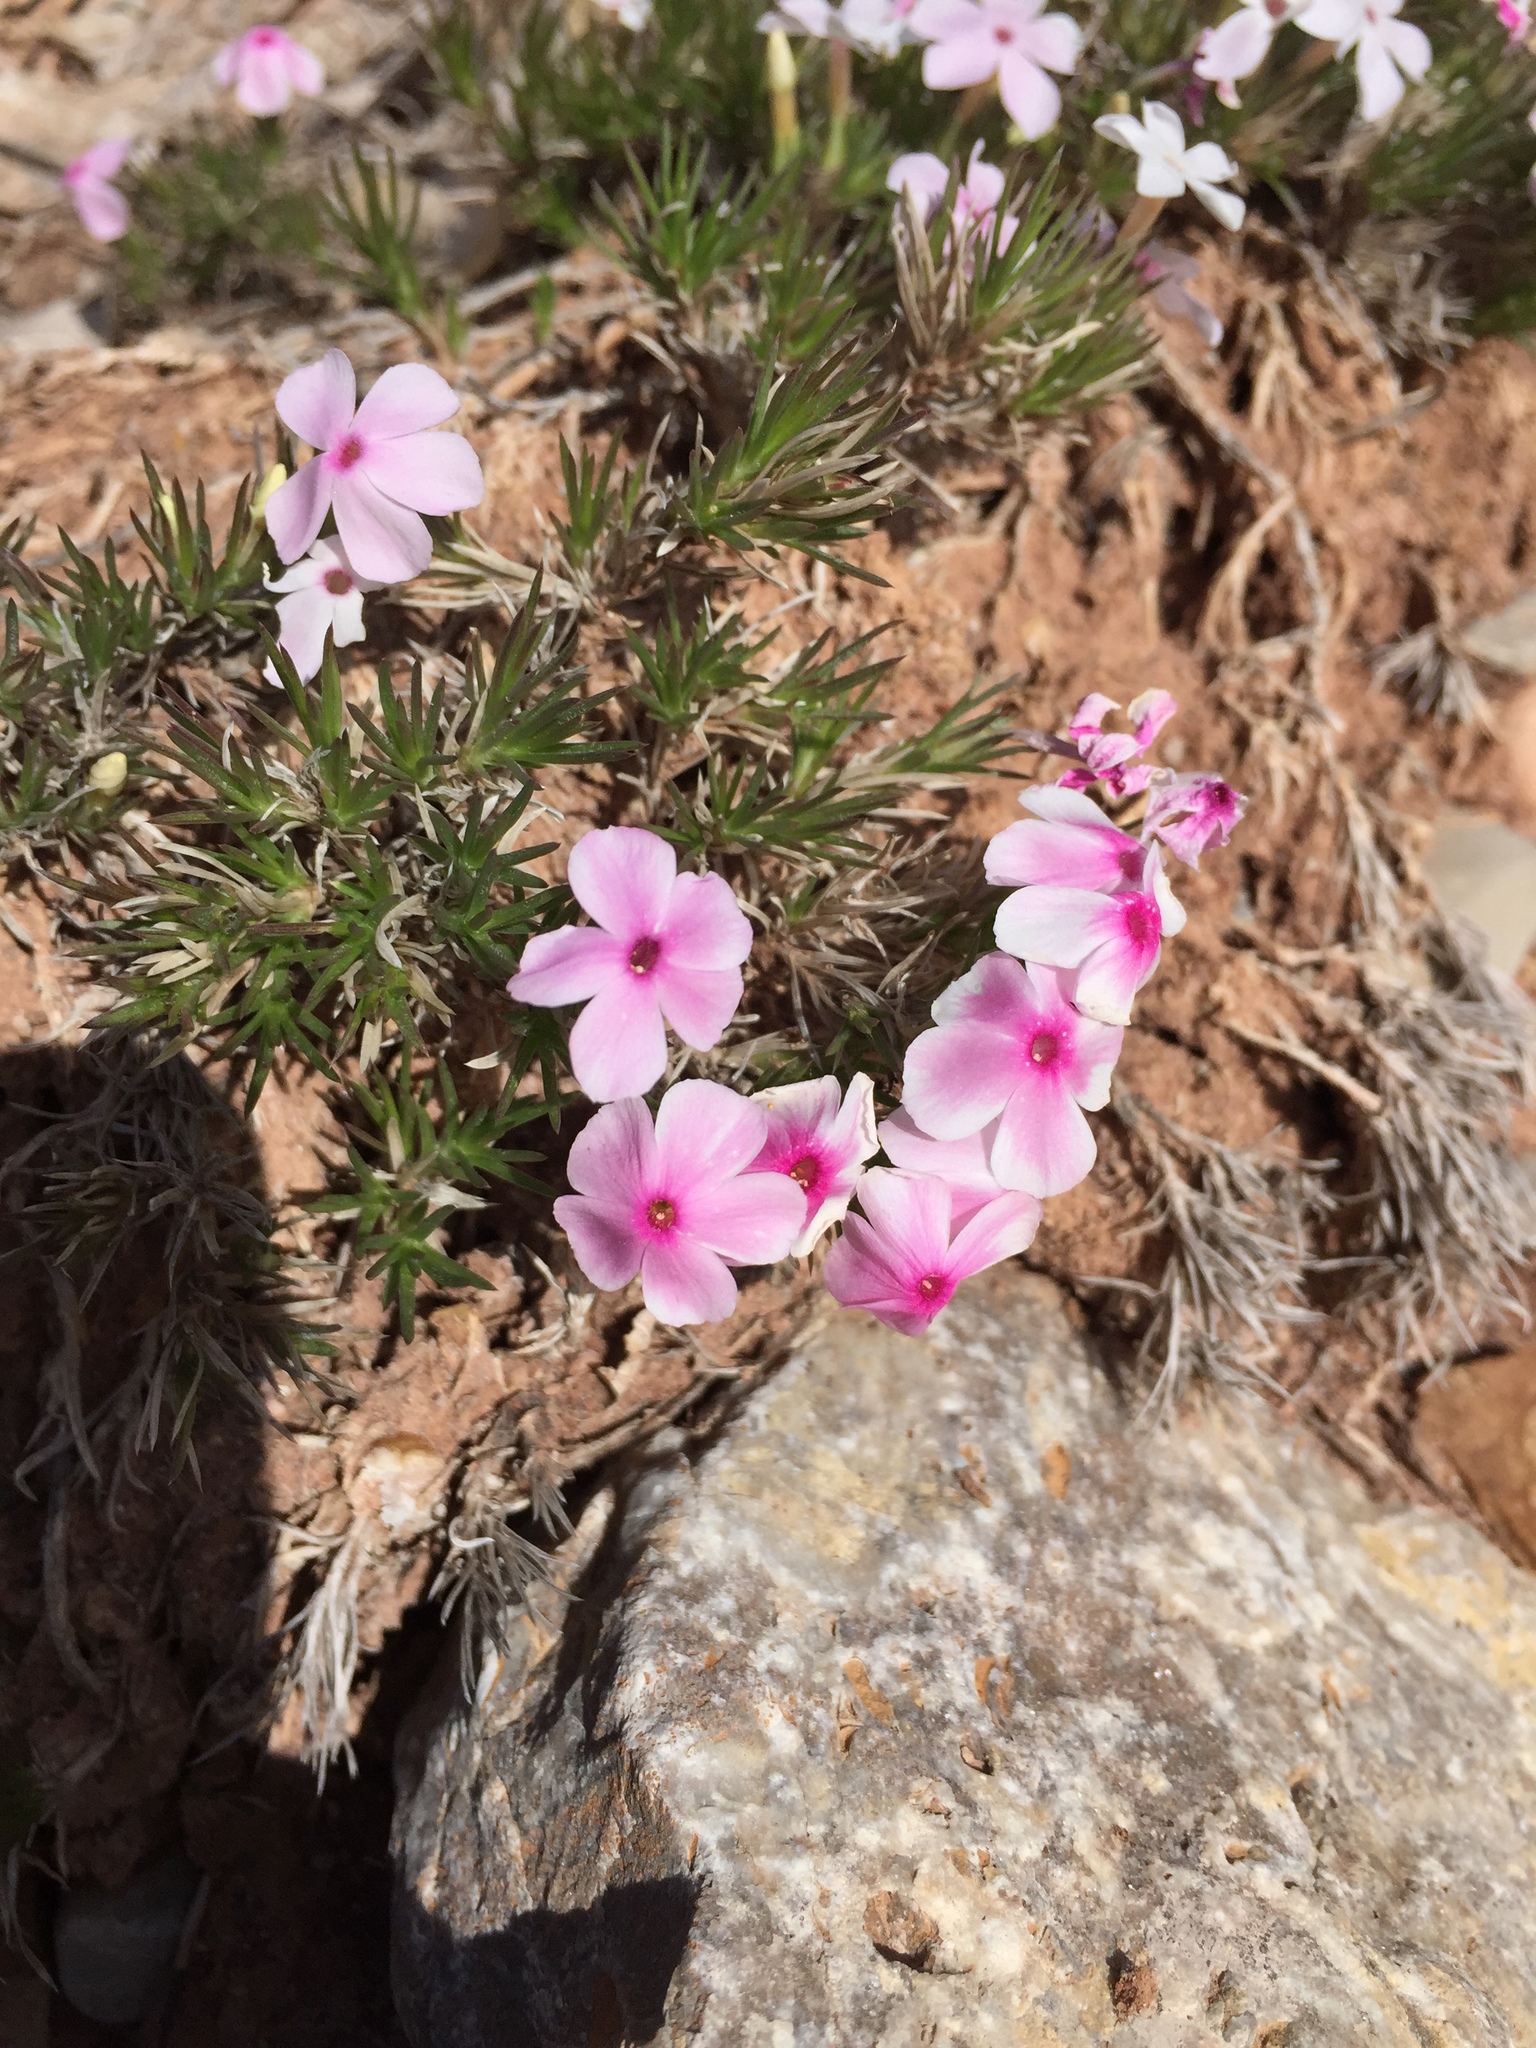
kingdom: Plantae
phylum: Tracheophyta
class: Magnoliopsida
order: Ericales
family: Polemoniaceae
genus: Phlox
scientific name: Phlox austromontana
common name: Desert phlox
